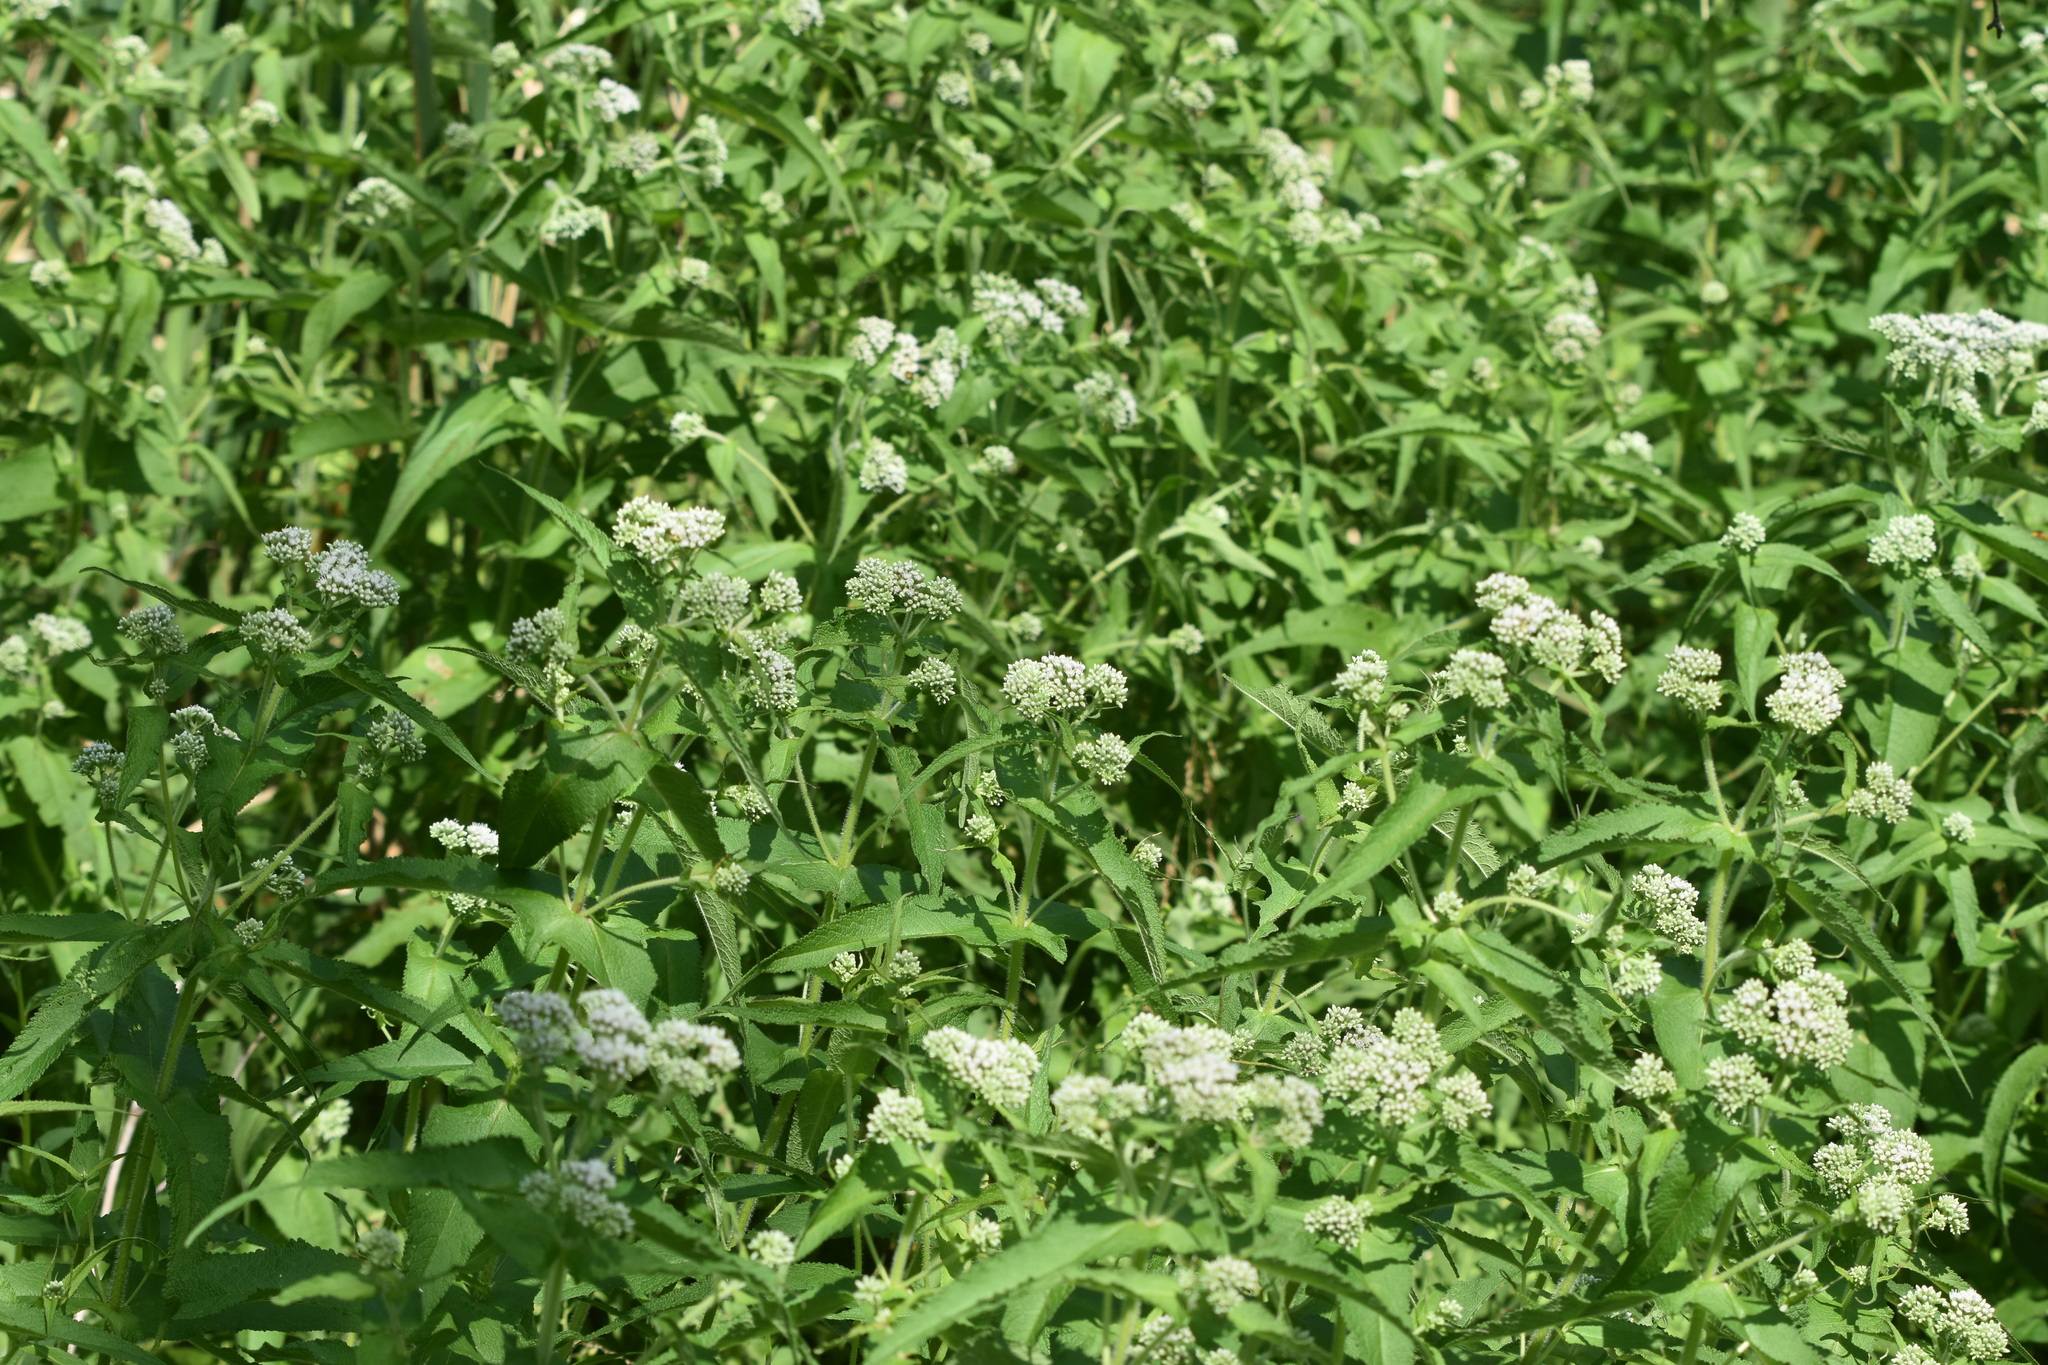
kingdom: Plantae
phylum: Tracheophyta
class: Magnoliopsida
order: Asterales
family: Asteraceae
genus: Eupatorium
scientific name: Eupatorium perfoliatum
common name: Boneset
